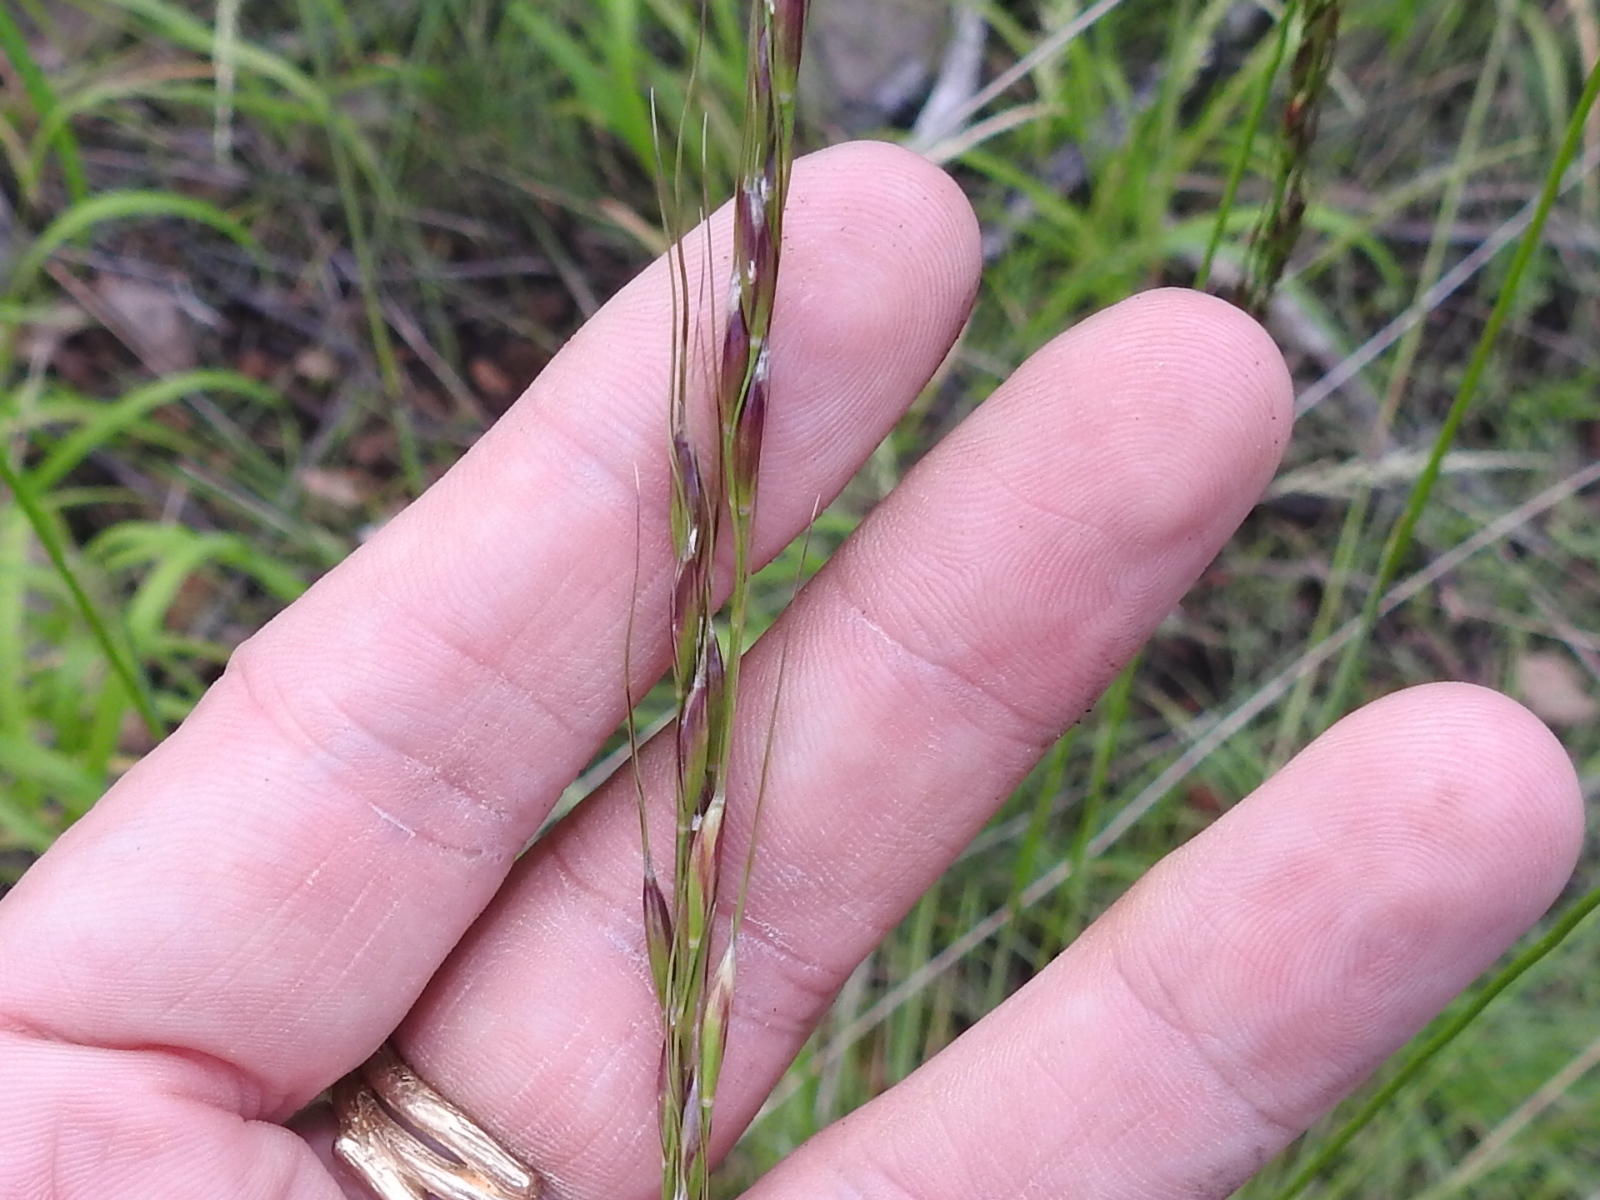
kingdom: Plantae
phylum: Tracheophyta
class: Liliopsida
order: Poales
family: Poaceae
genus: Piptochaetium
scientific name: Piptochaetium pringlei
